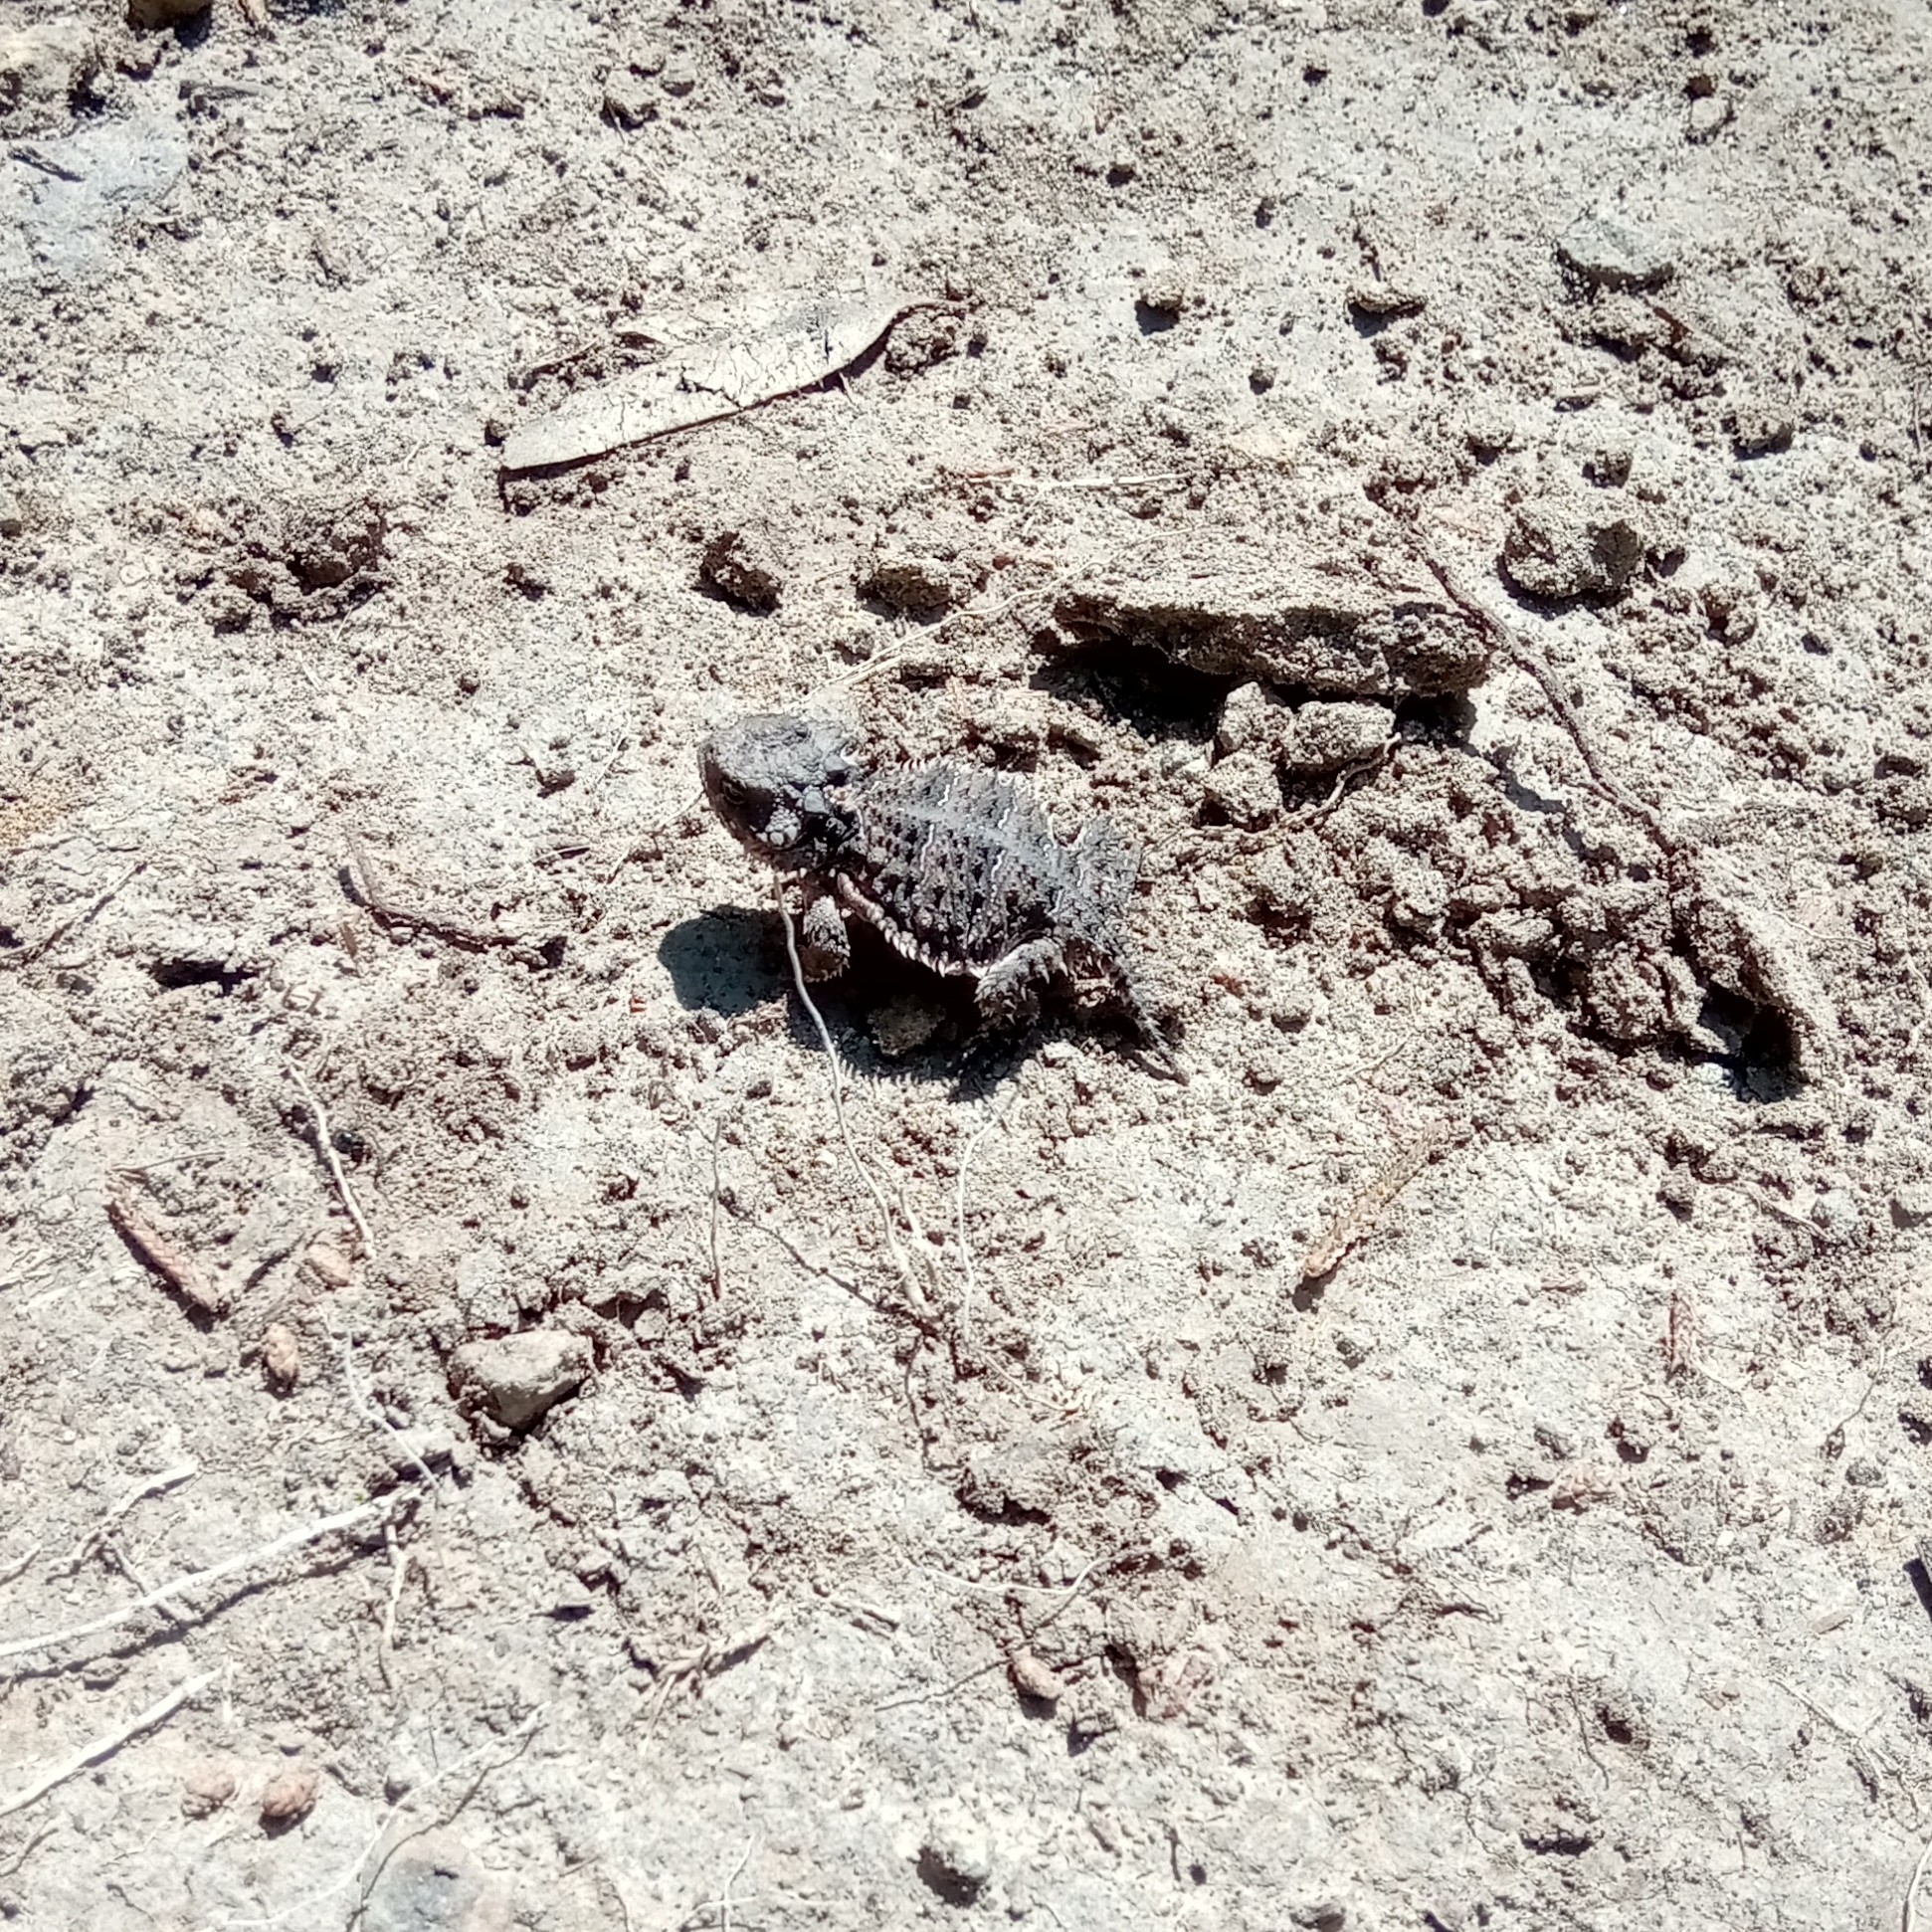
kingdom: Animalia
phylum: Chordata
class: Squamata
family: Phrynosomatidae
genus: Phrynosoma
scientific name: Phrynosoma orbiculare
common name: Mountain horned lizard
